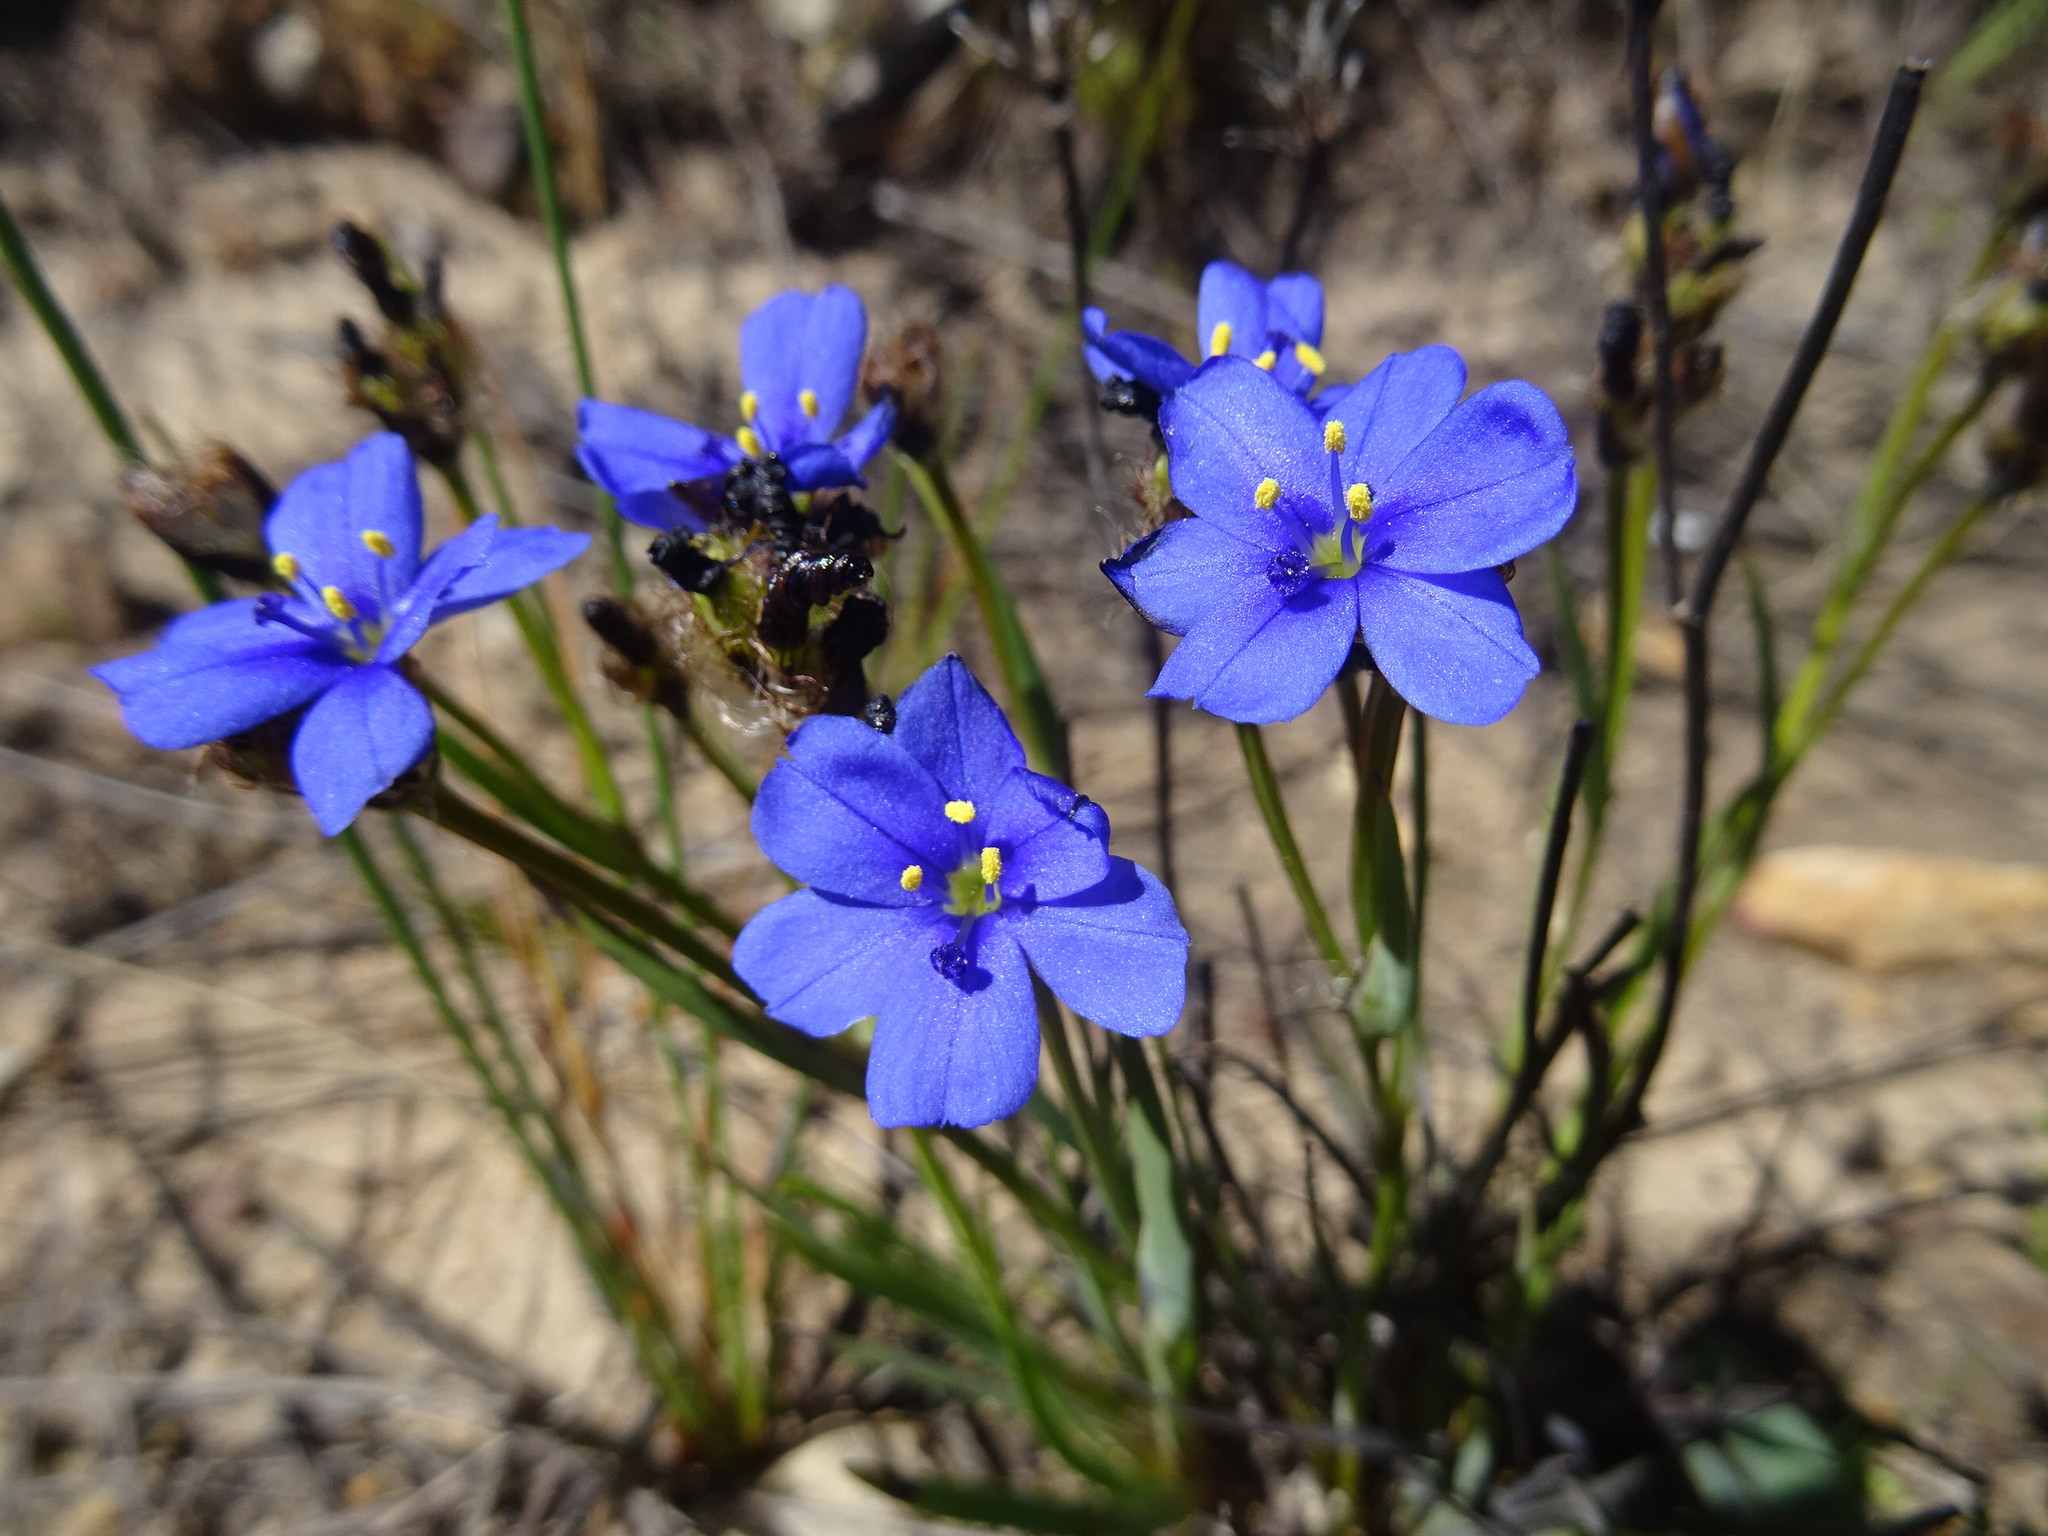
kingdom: Plantae
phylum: Tracheophyta
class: Liliopsida
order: Asparagales
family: Iridaceae
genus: Aristea
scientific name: Aristea africana
